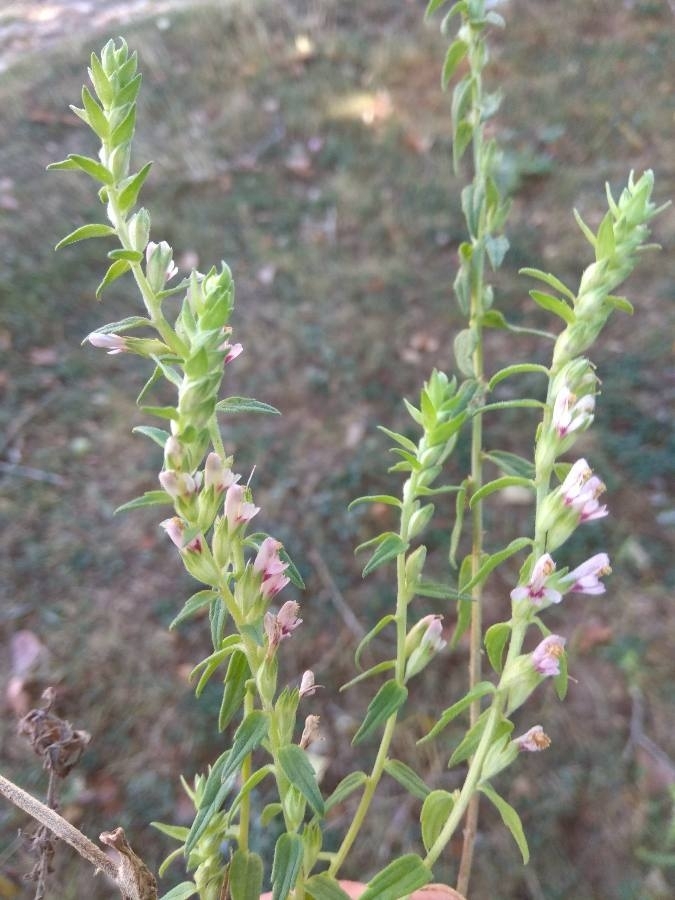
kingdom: Plantae
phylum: Tracheophyta
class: Magnoliopsida
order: Lamiales
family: Orobanchaceae
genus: Odontites
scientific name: Odontites vernus
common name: Red bartsia
